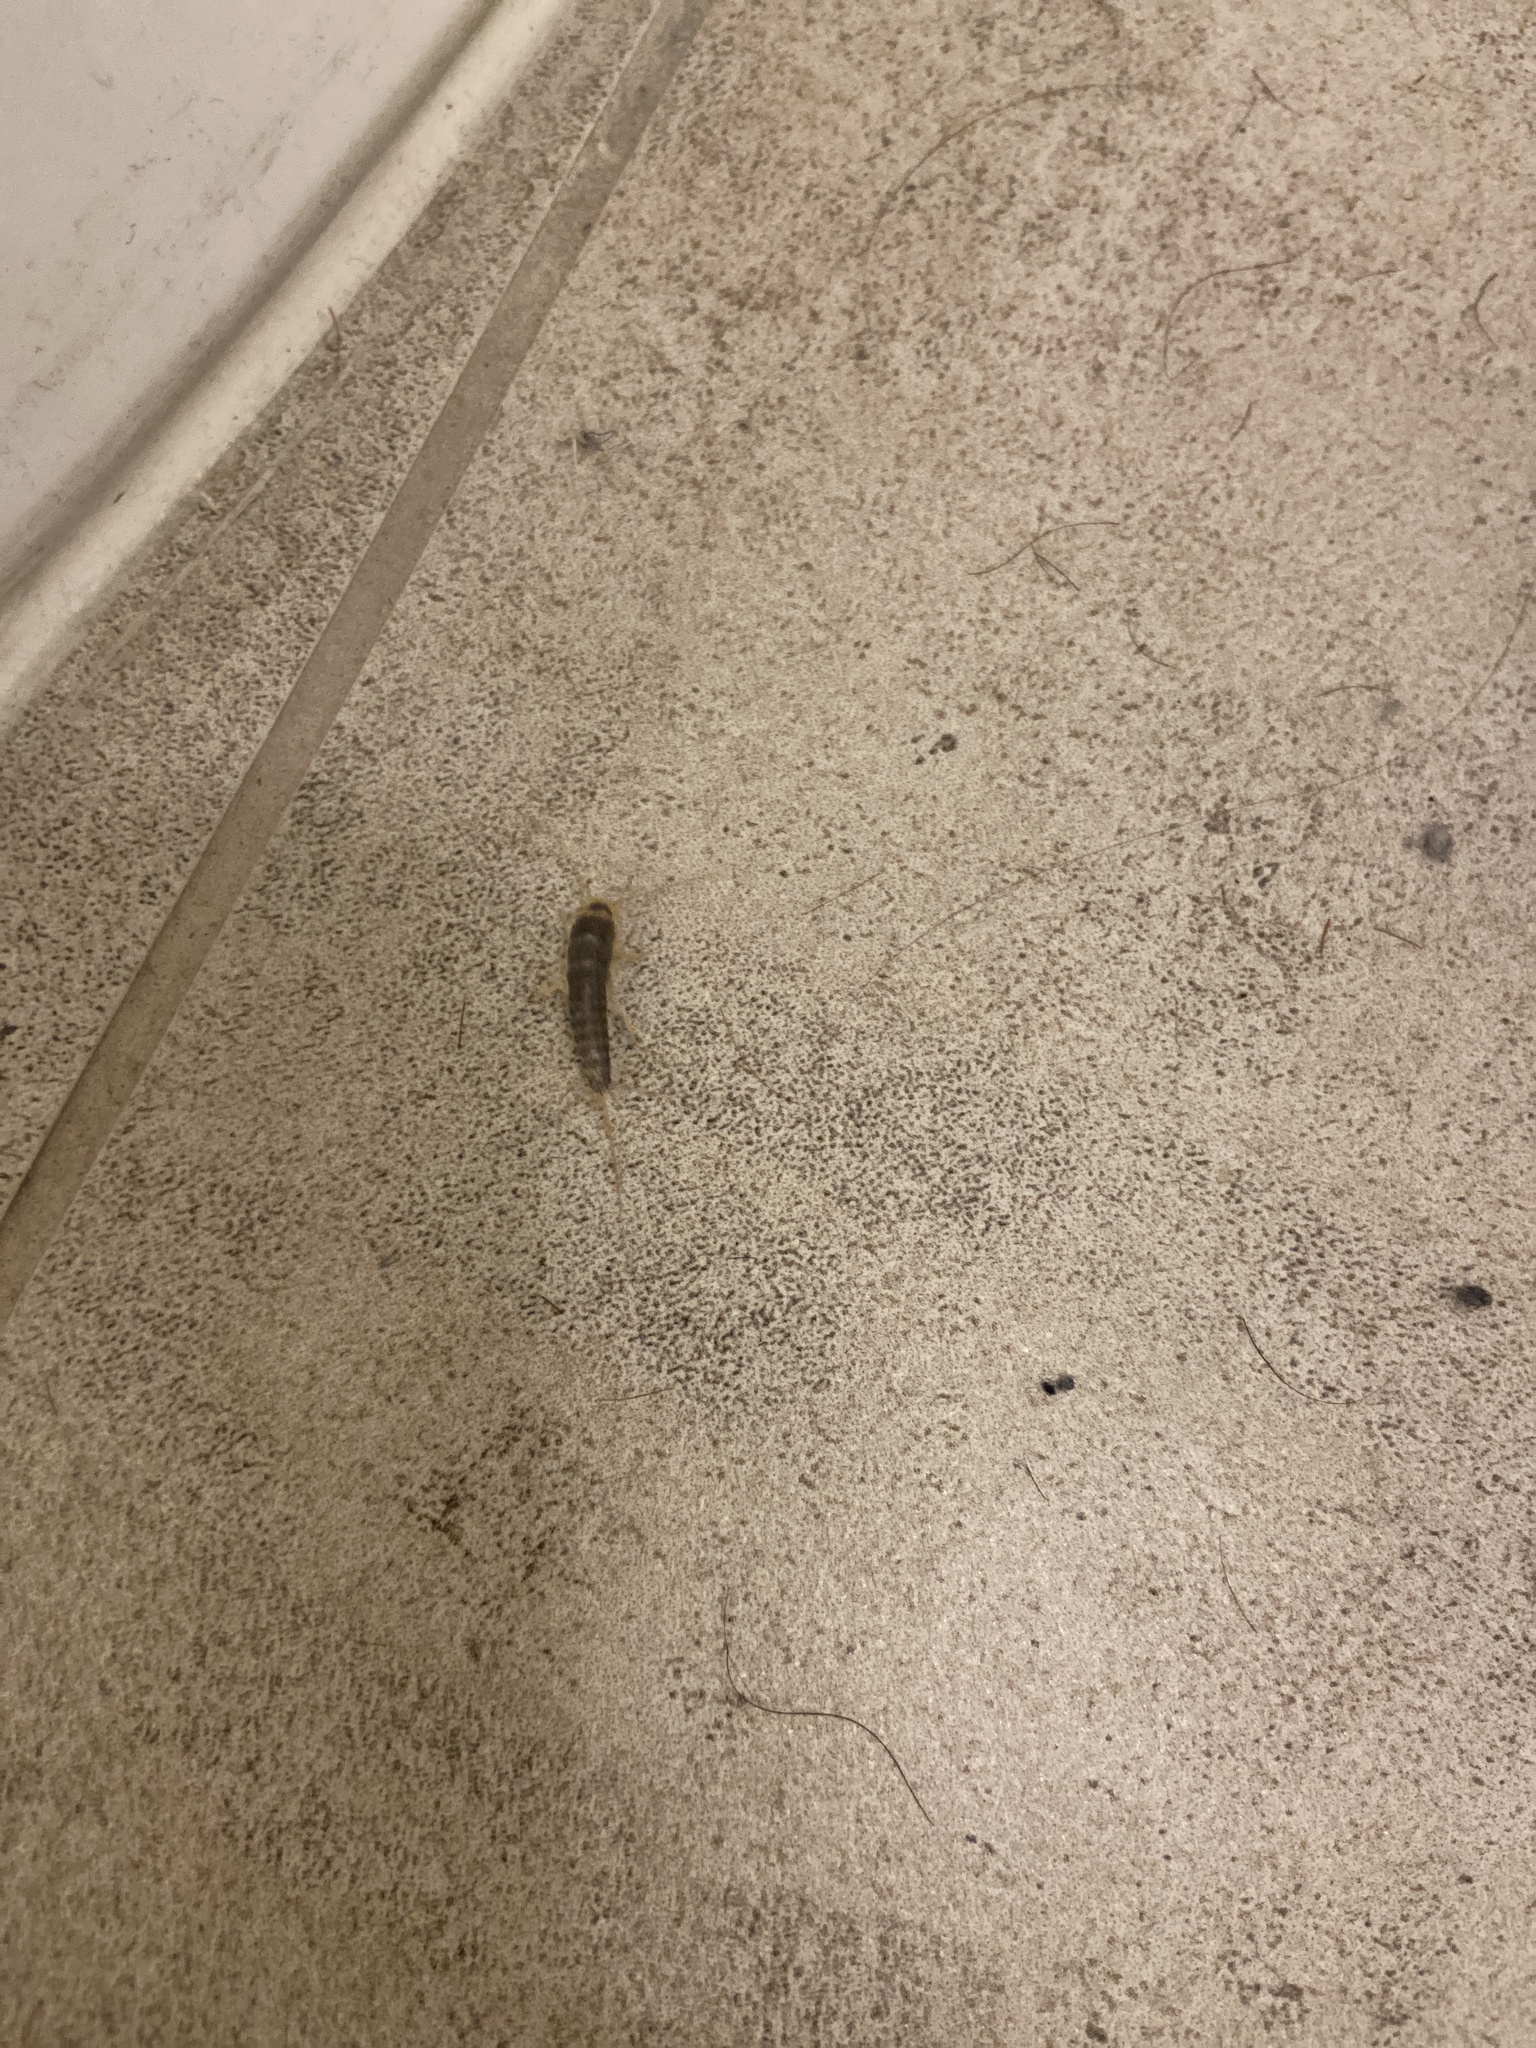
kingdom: Animalia
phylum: Arthropoda
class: Insecta
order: Zygentoma
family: Lepismatidae
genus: Ctenolepisma
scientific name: Ctenolepisma longicaudatum
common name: Silverfish
